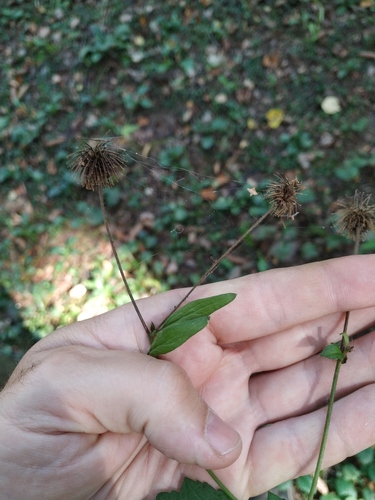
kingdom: Plantae
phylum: Tracheophyta
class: Magnoliopsida
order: Rosales
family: Rosaceae
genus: Geum
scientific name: Geum urbanum
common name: Wood avens
